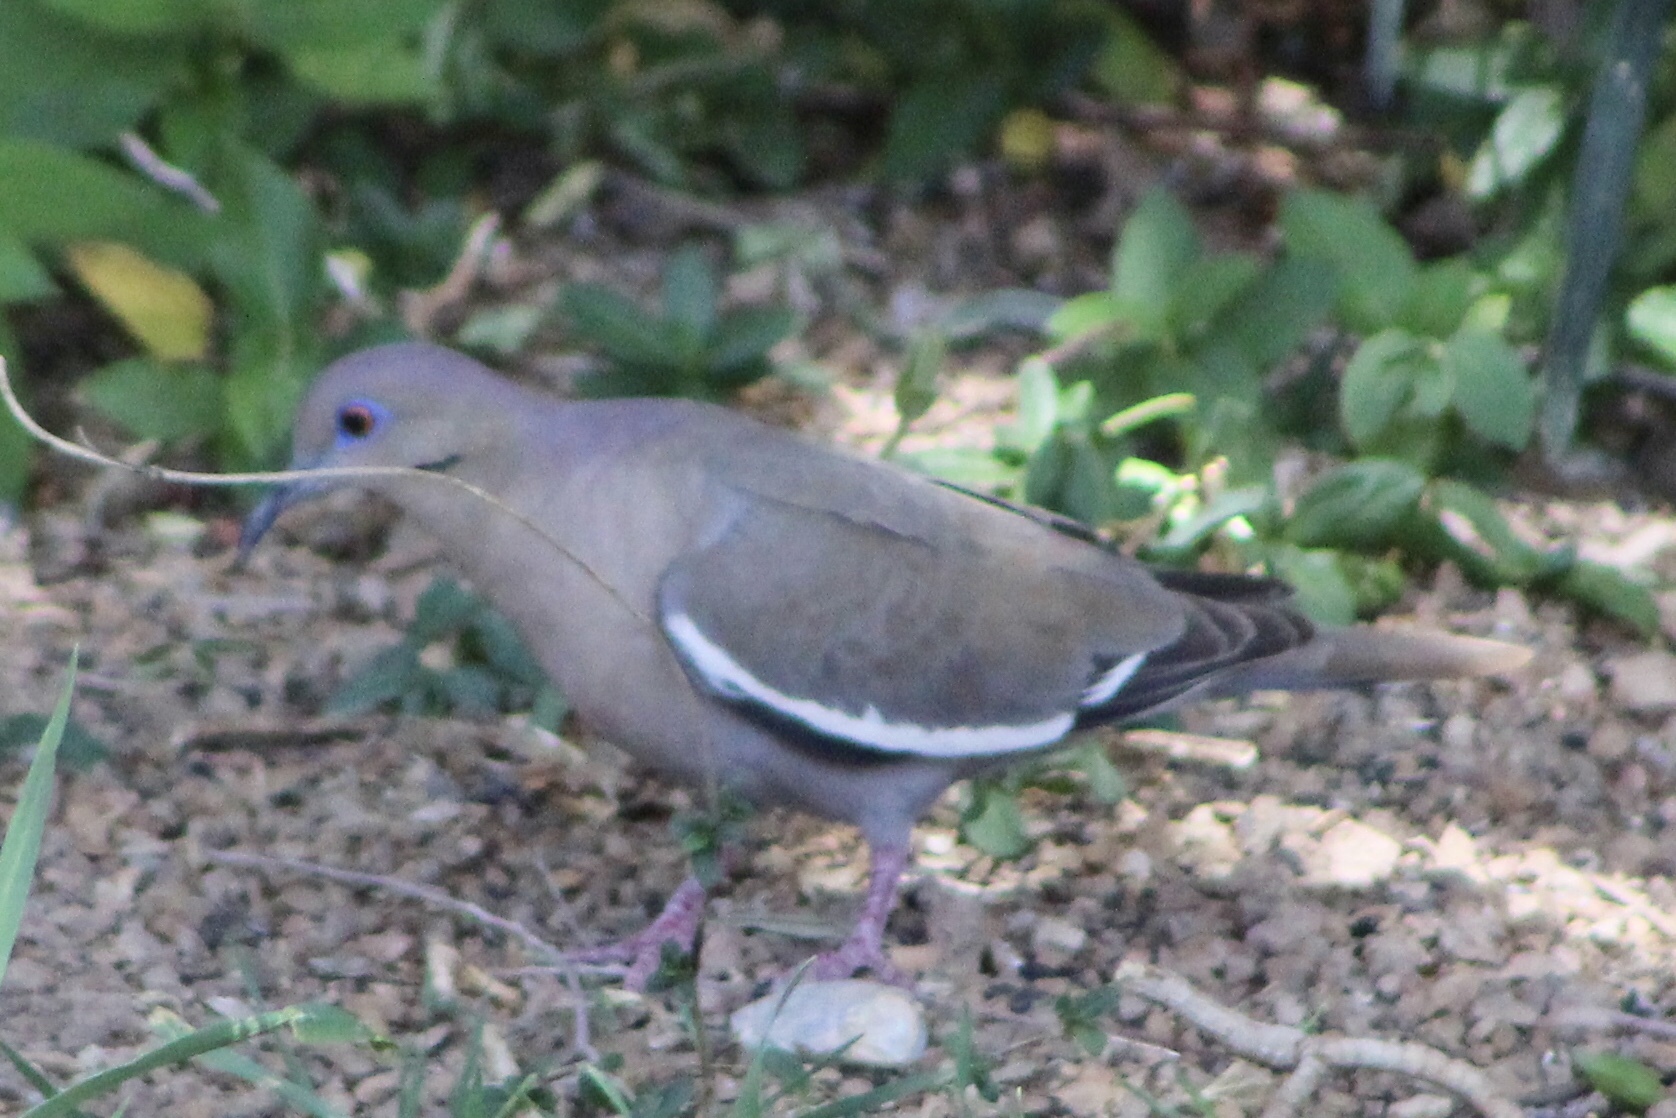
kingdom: Animalia
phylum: Chordata
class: Aves
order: Columbiformes
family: Columbidae
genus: Zenaida
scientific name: Zenaida asiatica
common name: White-winged dove
